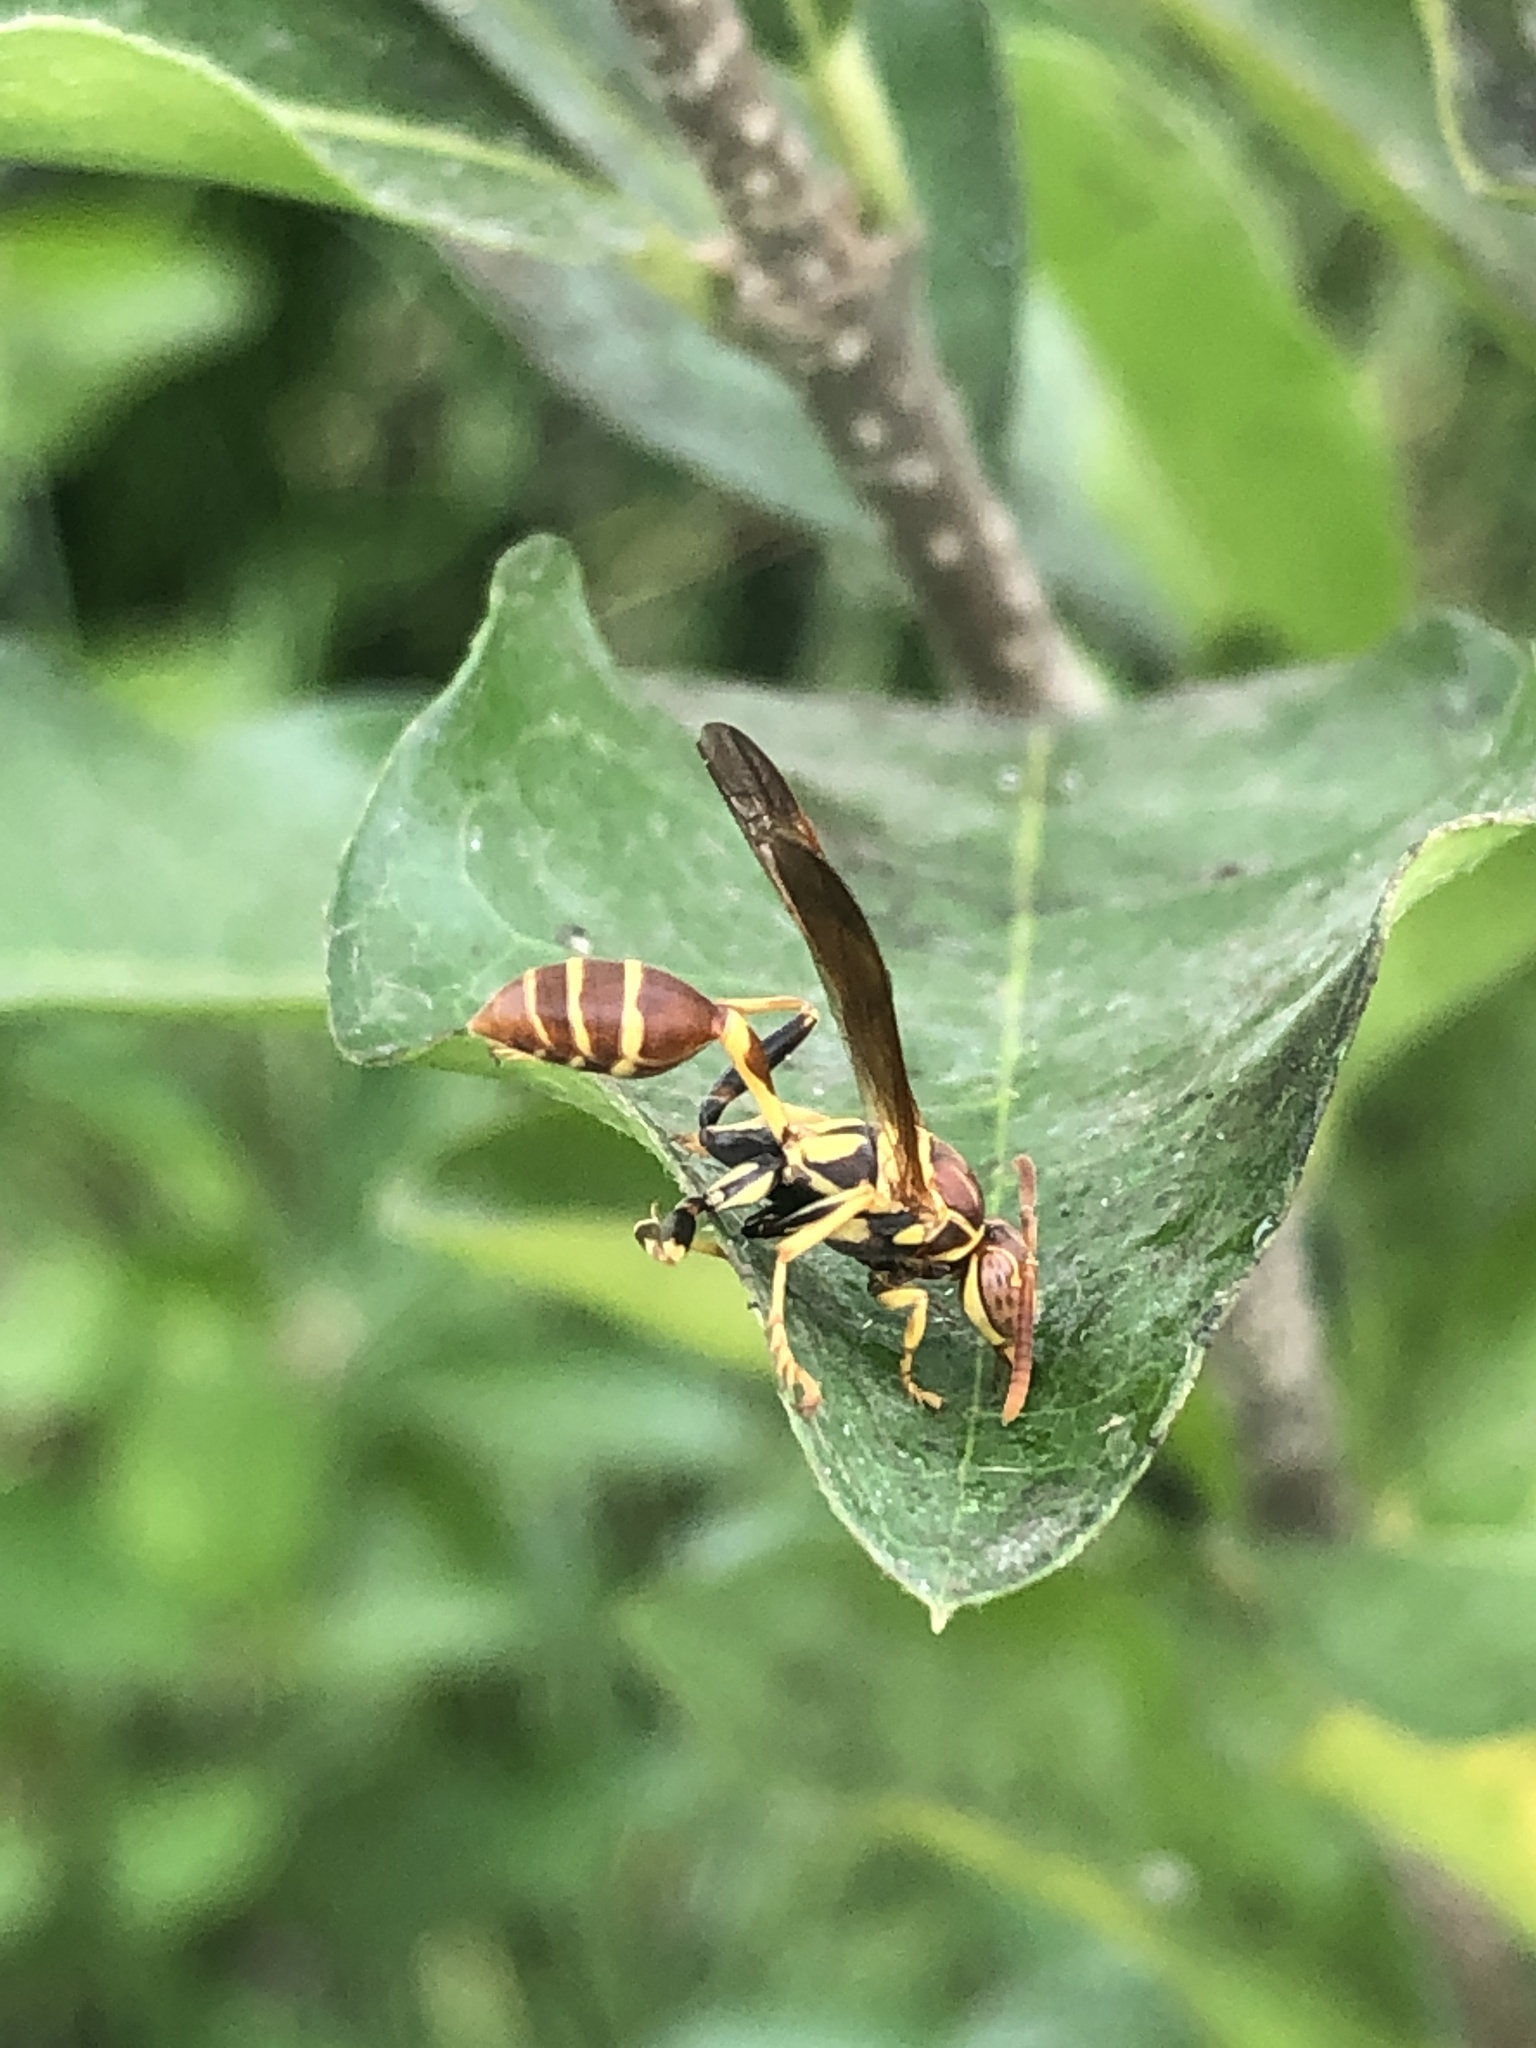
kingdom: Animalia
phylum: Arthropoda
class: Insecta
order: Hymenoptera
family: Vespidae
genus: Mischocyttarus
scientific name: Mischocyttarus mexicanus
